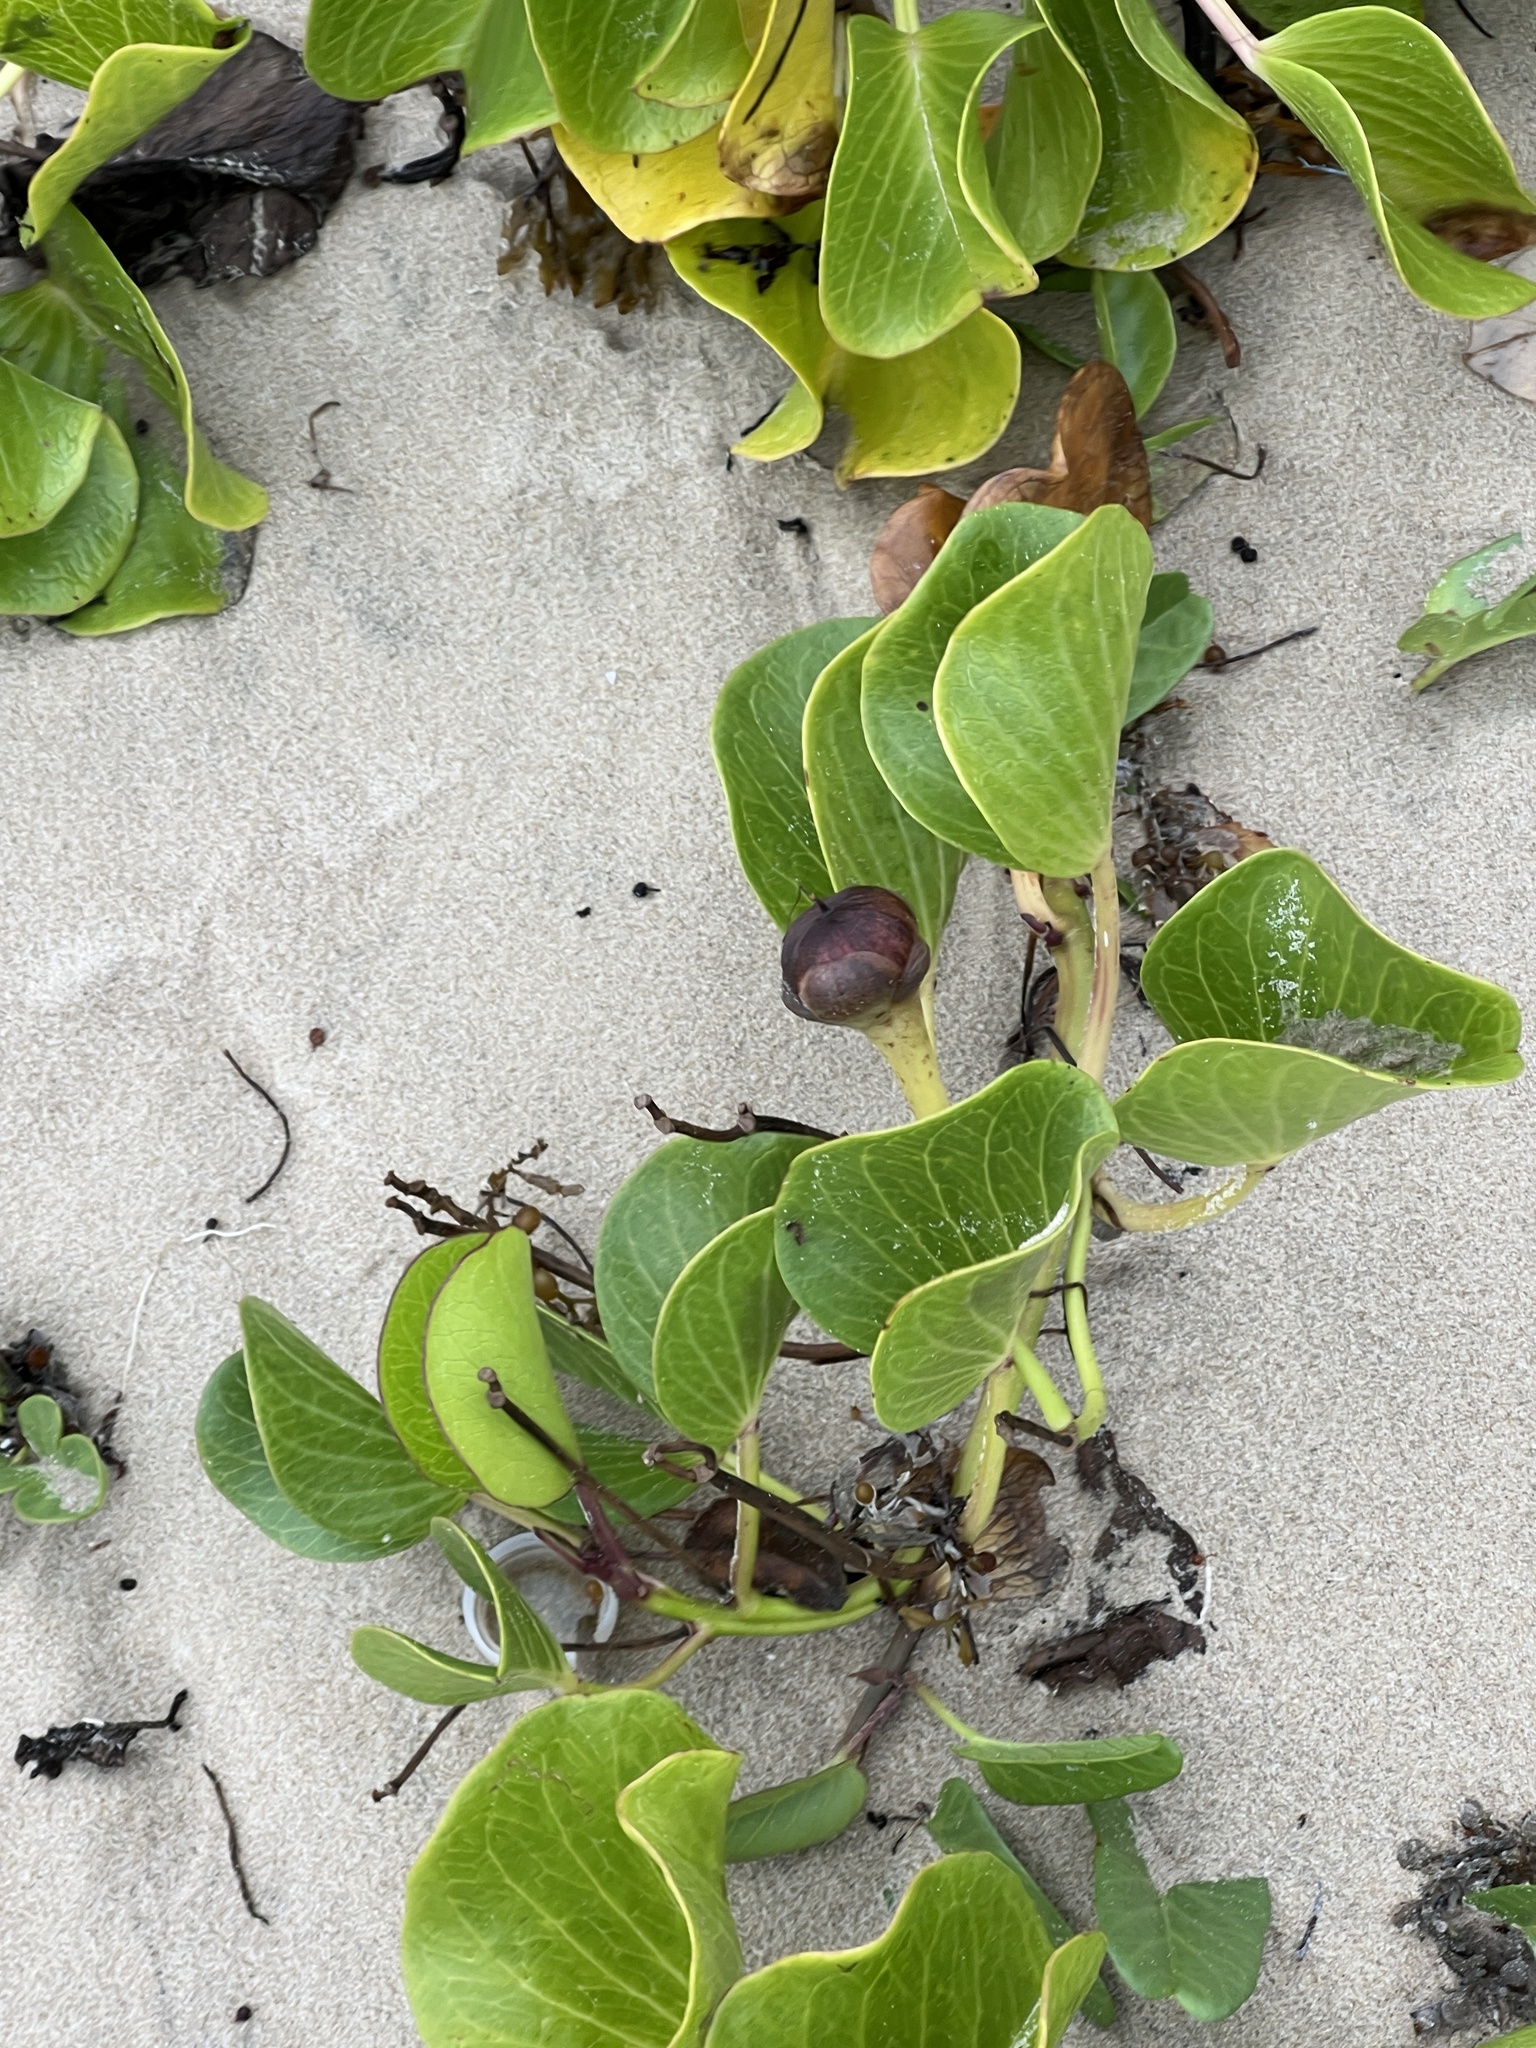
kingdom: Plantae
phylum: Tracheophyta
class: Magnoliopsida
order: Solanales
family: Convolvulaceae
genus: Ipomoea
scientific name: Ipomoea pes-caprae
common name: Beach morning glory
